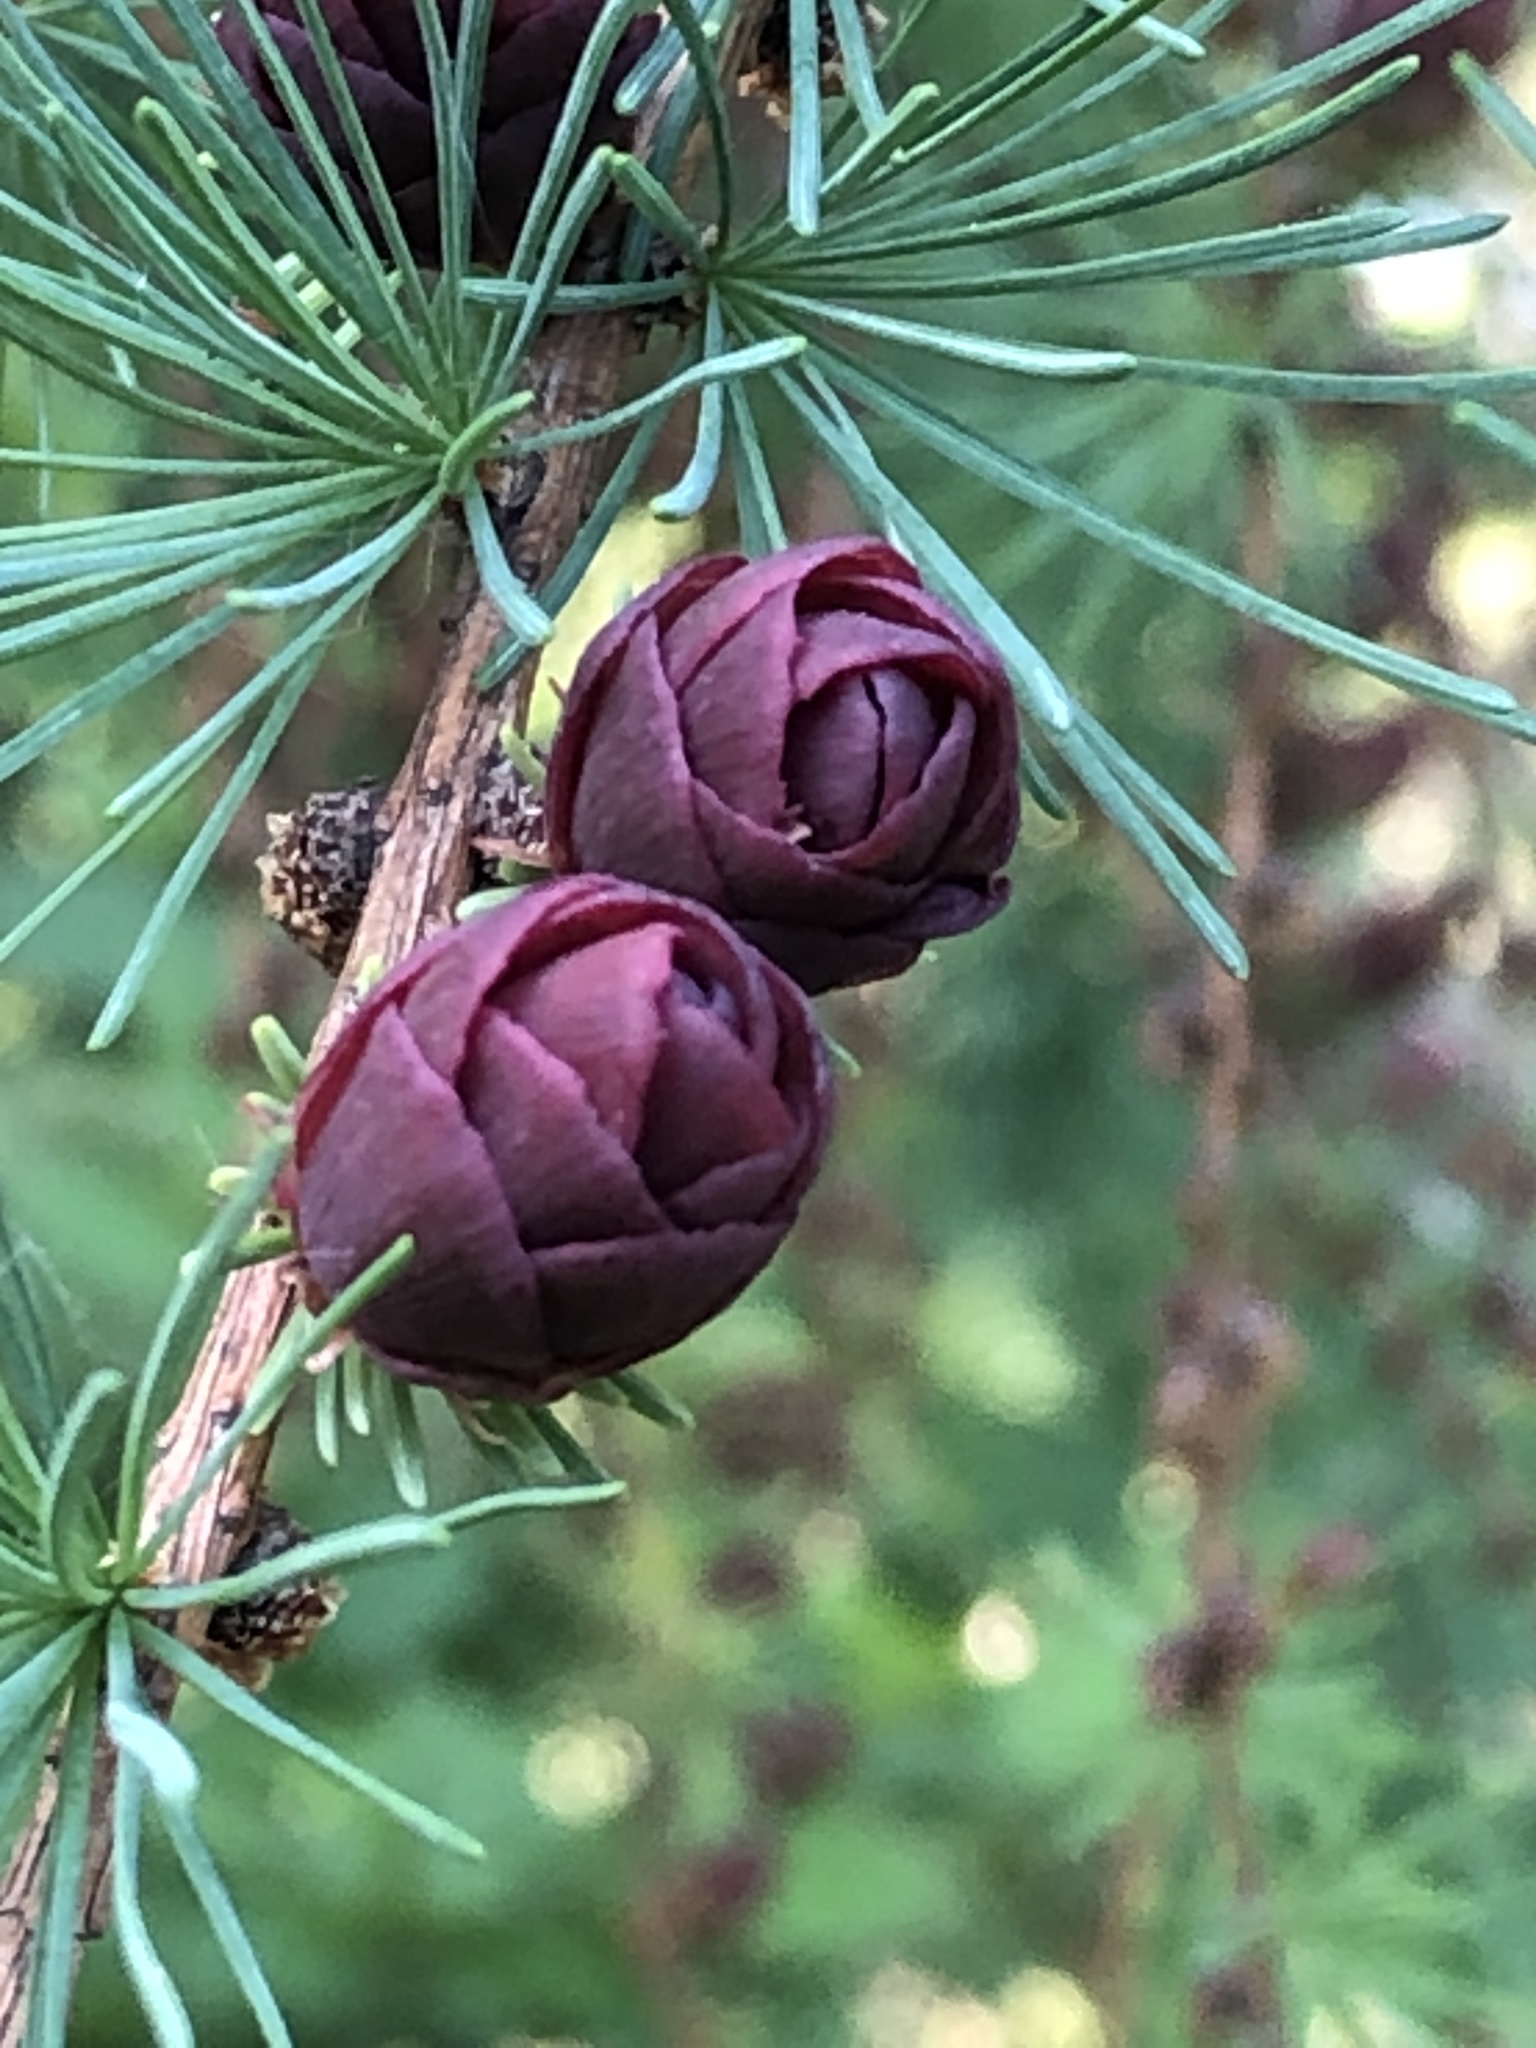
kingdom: Plantae
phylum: Tracheophyta
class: Pinopsida
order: Pinales
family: Pinaceae
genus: Larix
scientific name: Larix laricina
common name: American larch
